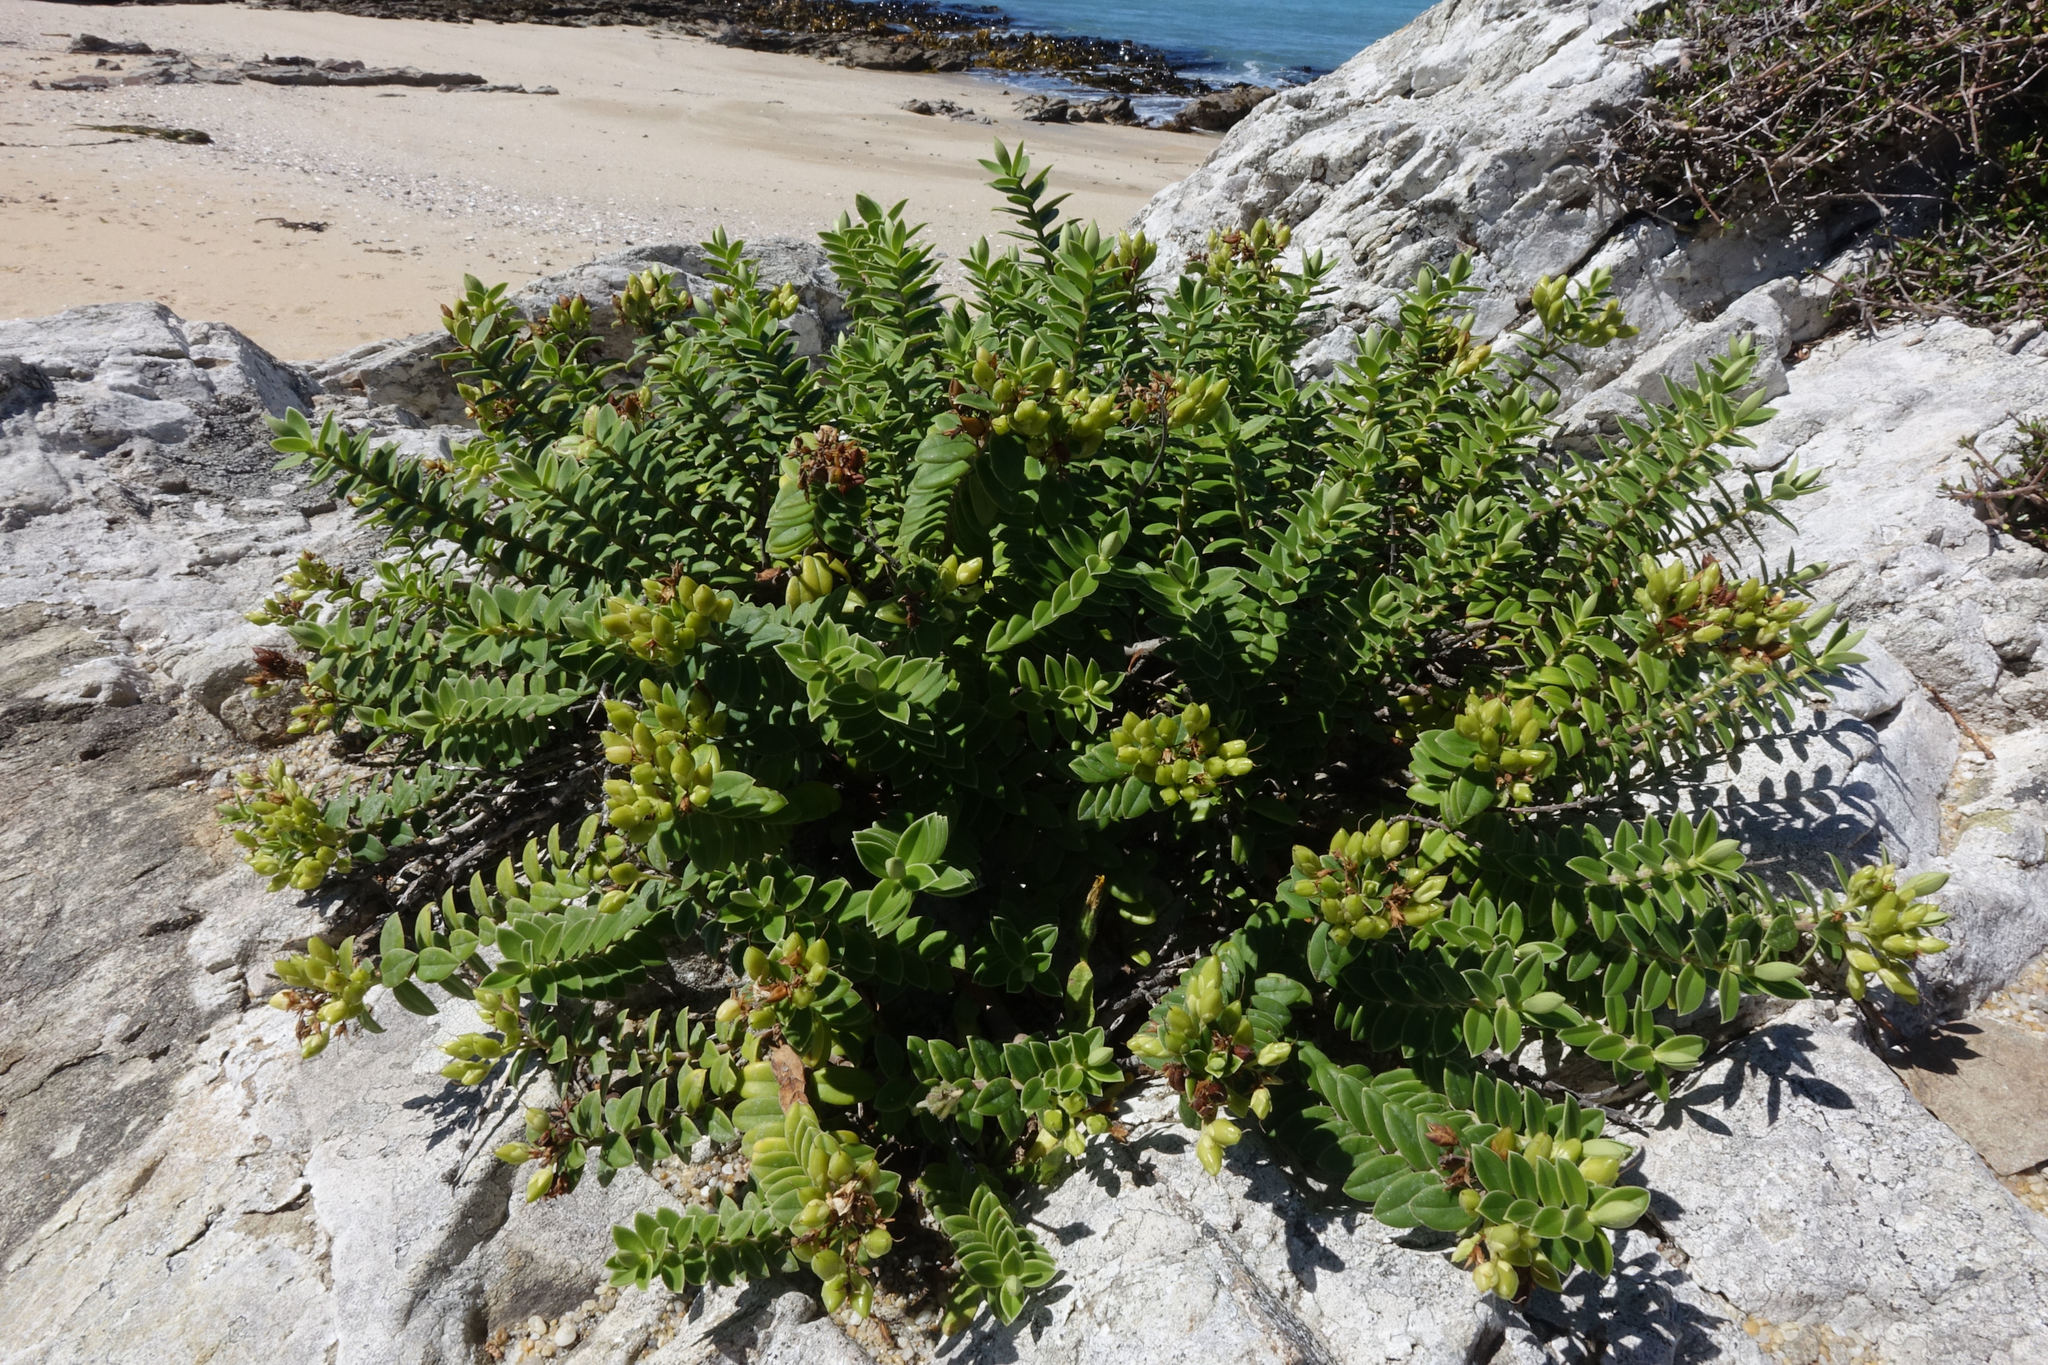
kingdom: Plantae
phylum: Tracheophyta
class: Magnoliopsida
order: Lamiales
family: Plantaginaceae
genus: Veronica
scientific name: Veronica elliptica
